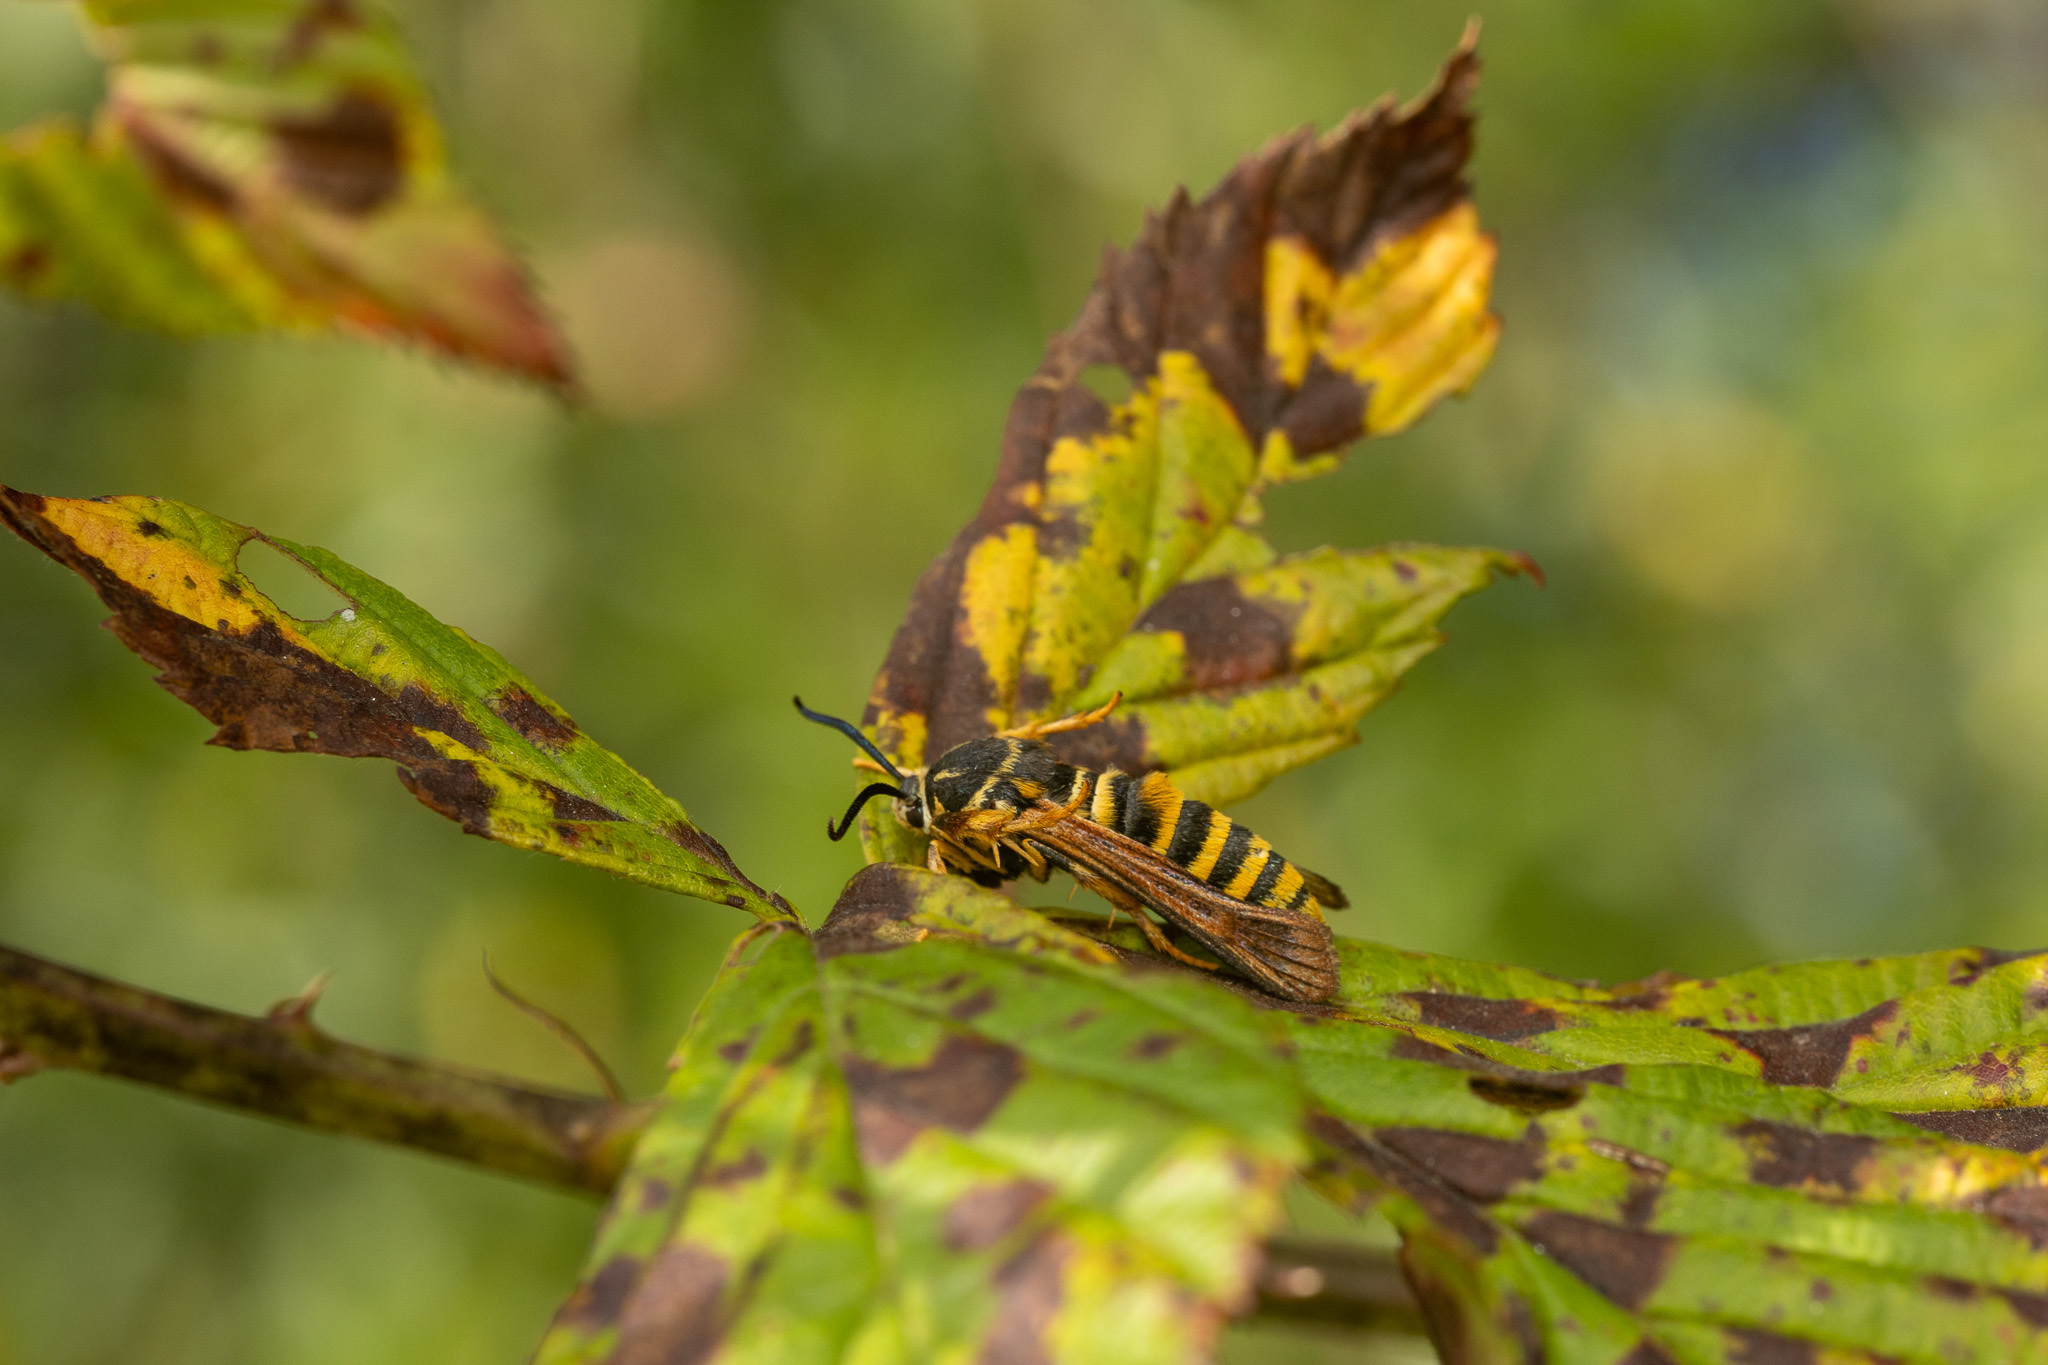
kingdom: Animalia
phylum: Arthropoda
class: Insecta
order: Lepidoptera
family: Sesiidae
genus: Pennisetia
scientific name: Pennisetia marginatum
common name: Raspberry crown borer
